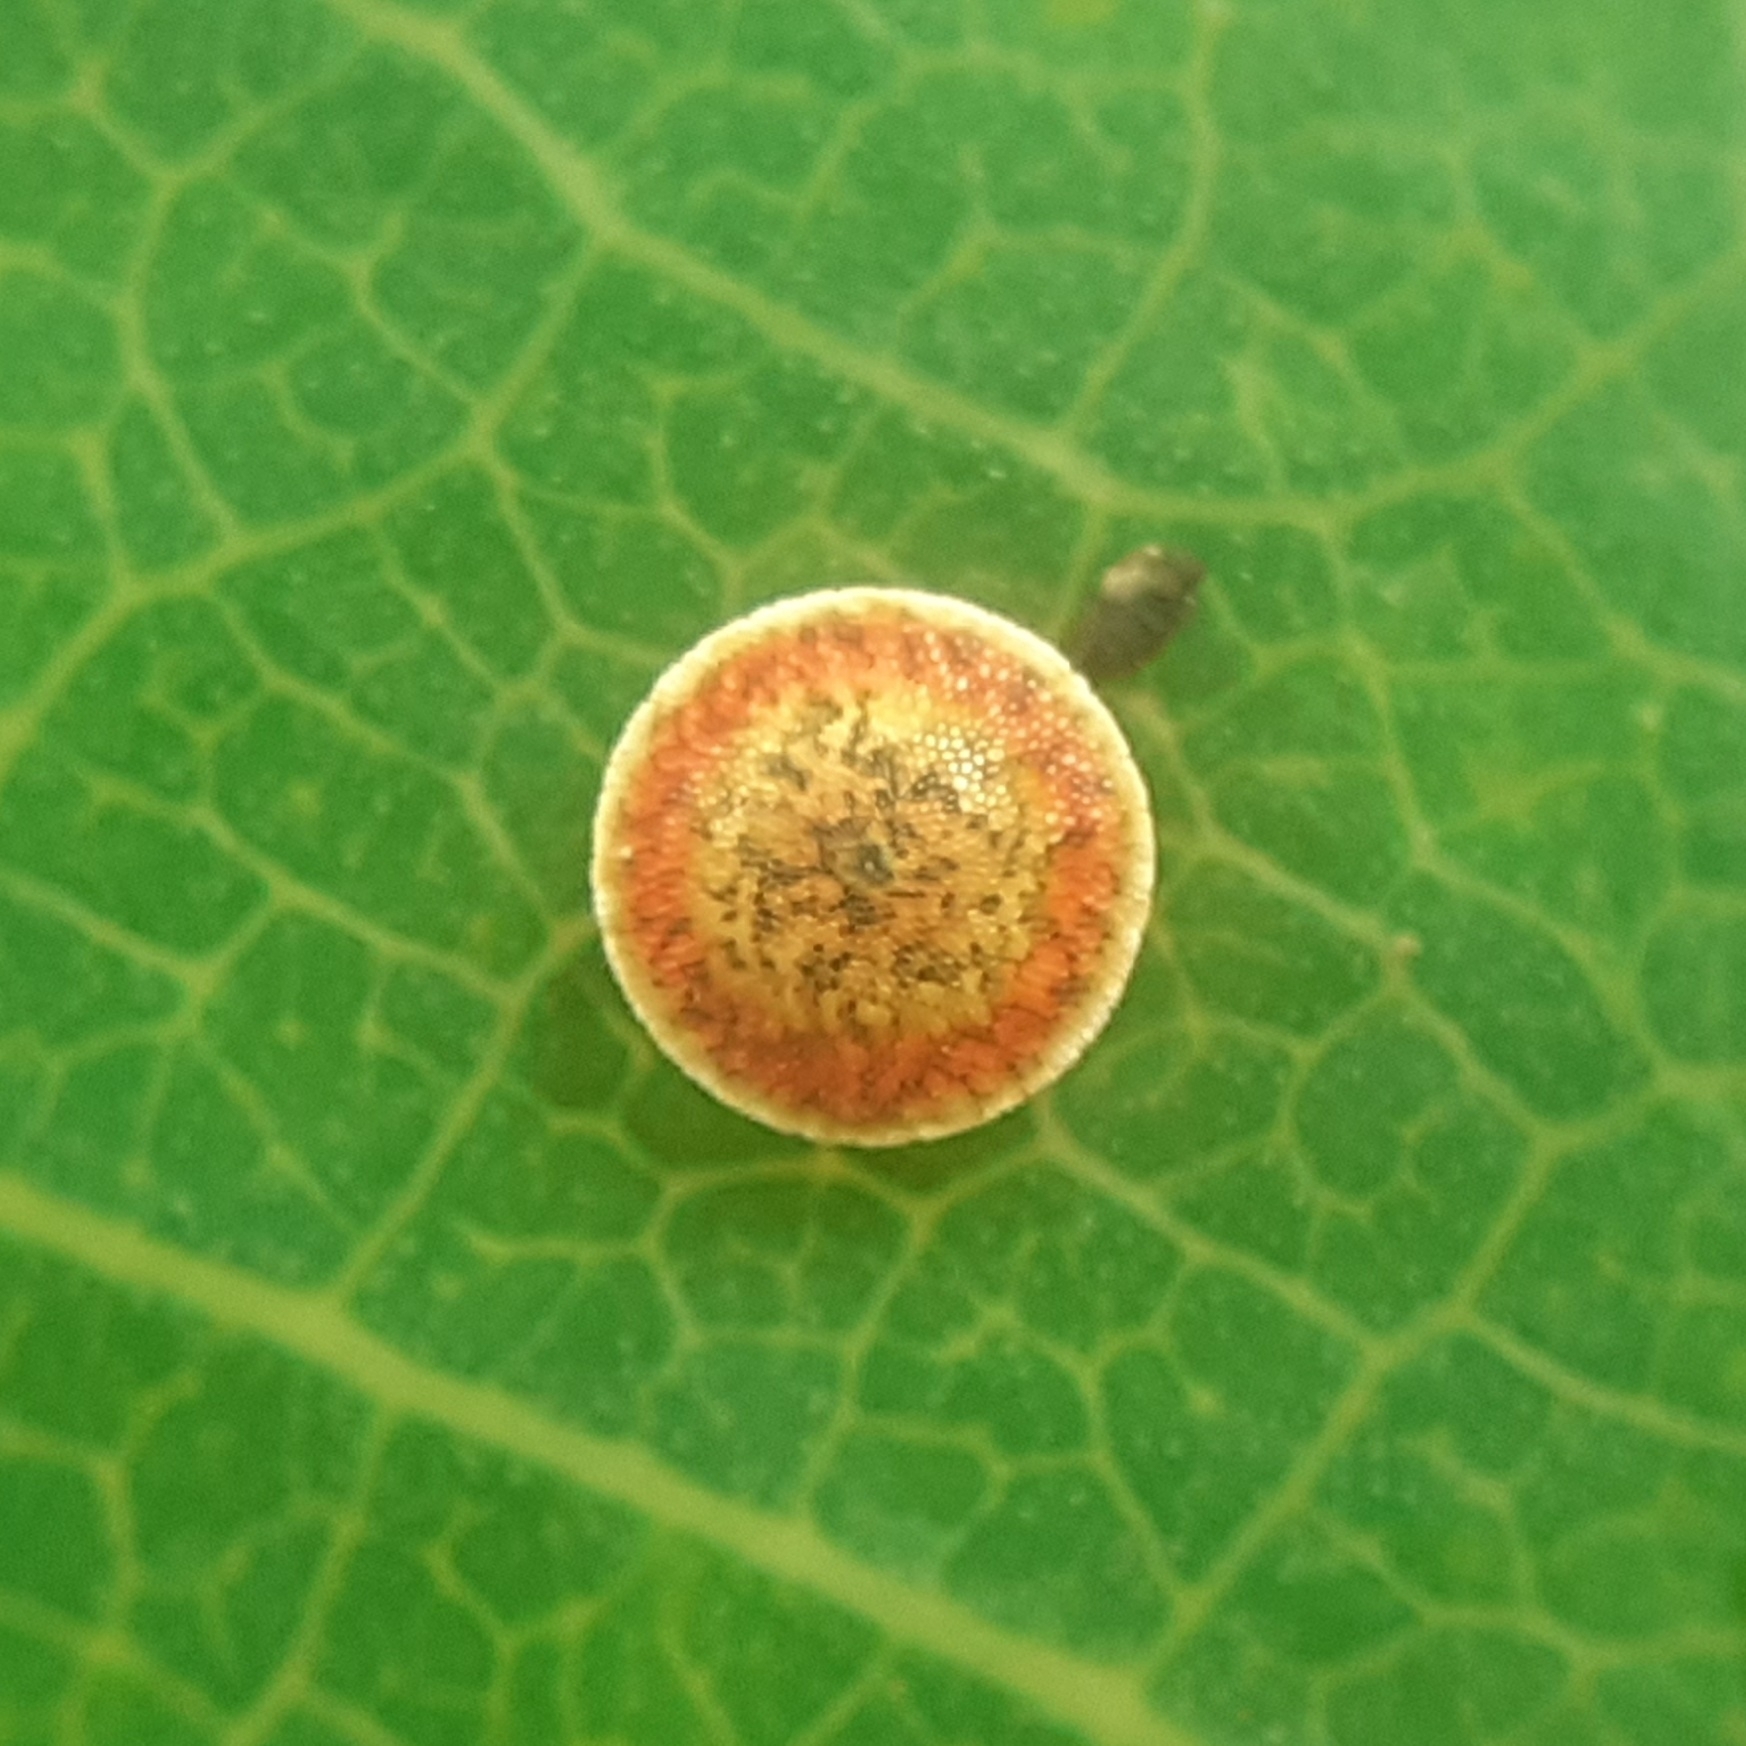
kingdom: Animalia
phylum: Arthropoda
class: Insecta
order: Lepidoptera
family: Notodontidae
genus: Cerura
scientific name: Cerura erminea
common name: Lesser puss moth
